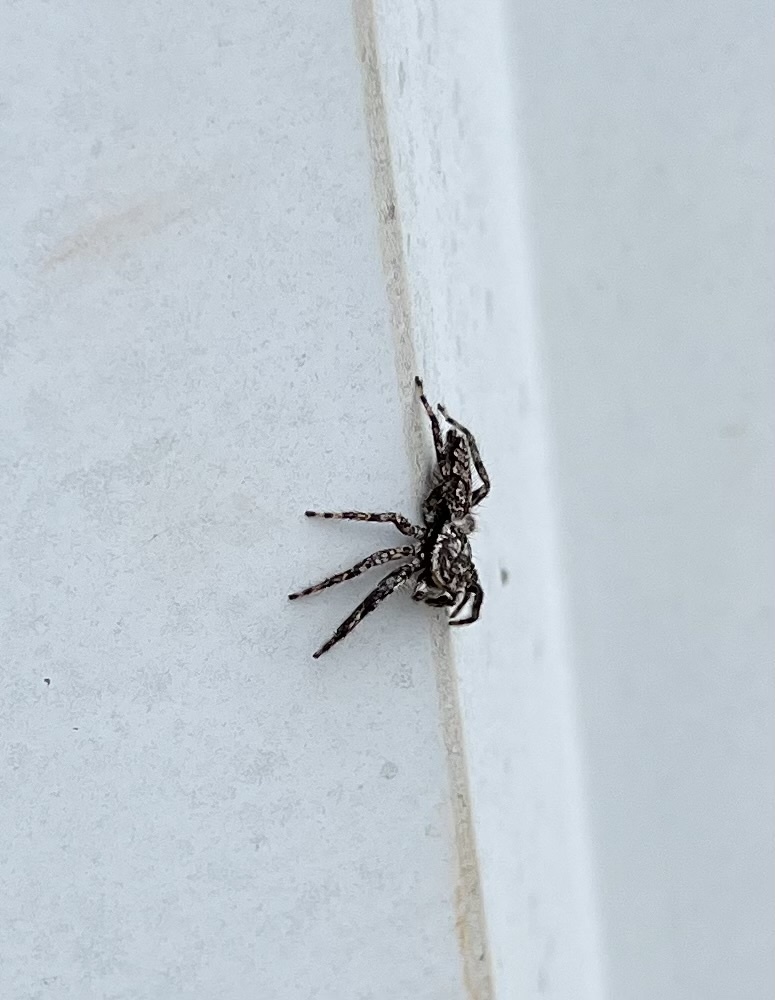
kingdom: Animalia
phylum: Arthropoda
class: Arachnida
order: Araneae
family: Salticidae
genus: Platycryptus
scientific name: Platycryptus undatus
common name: Tan jumping spider
